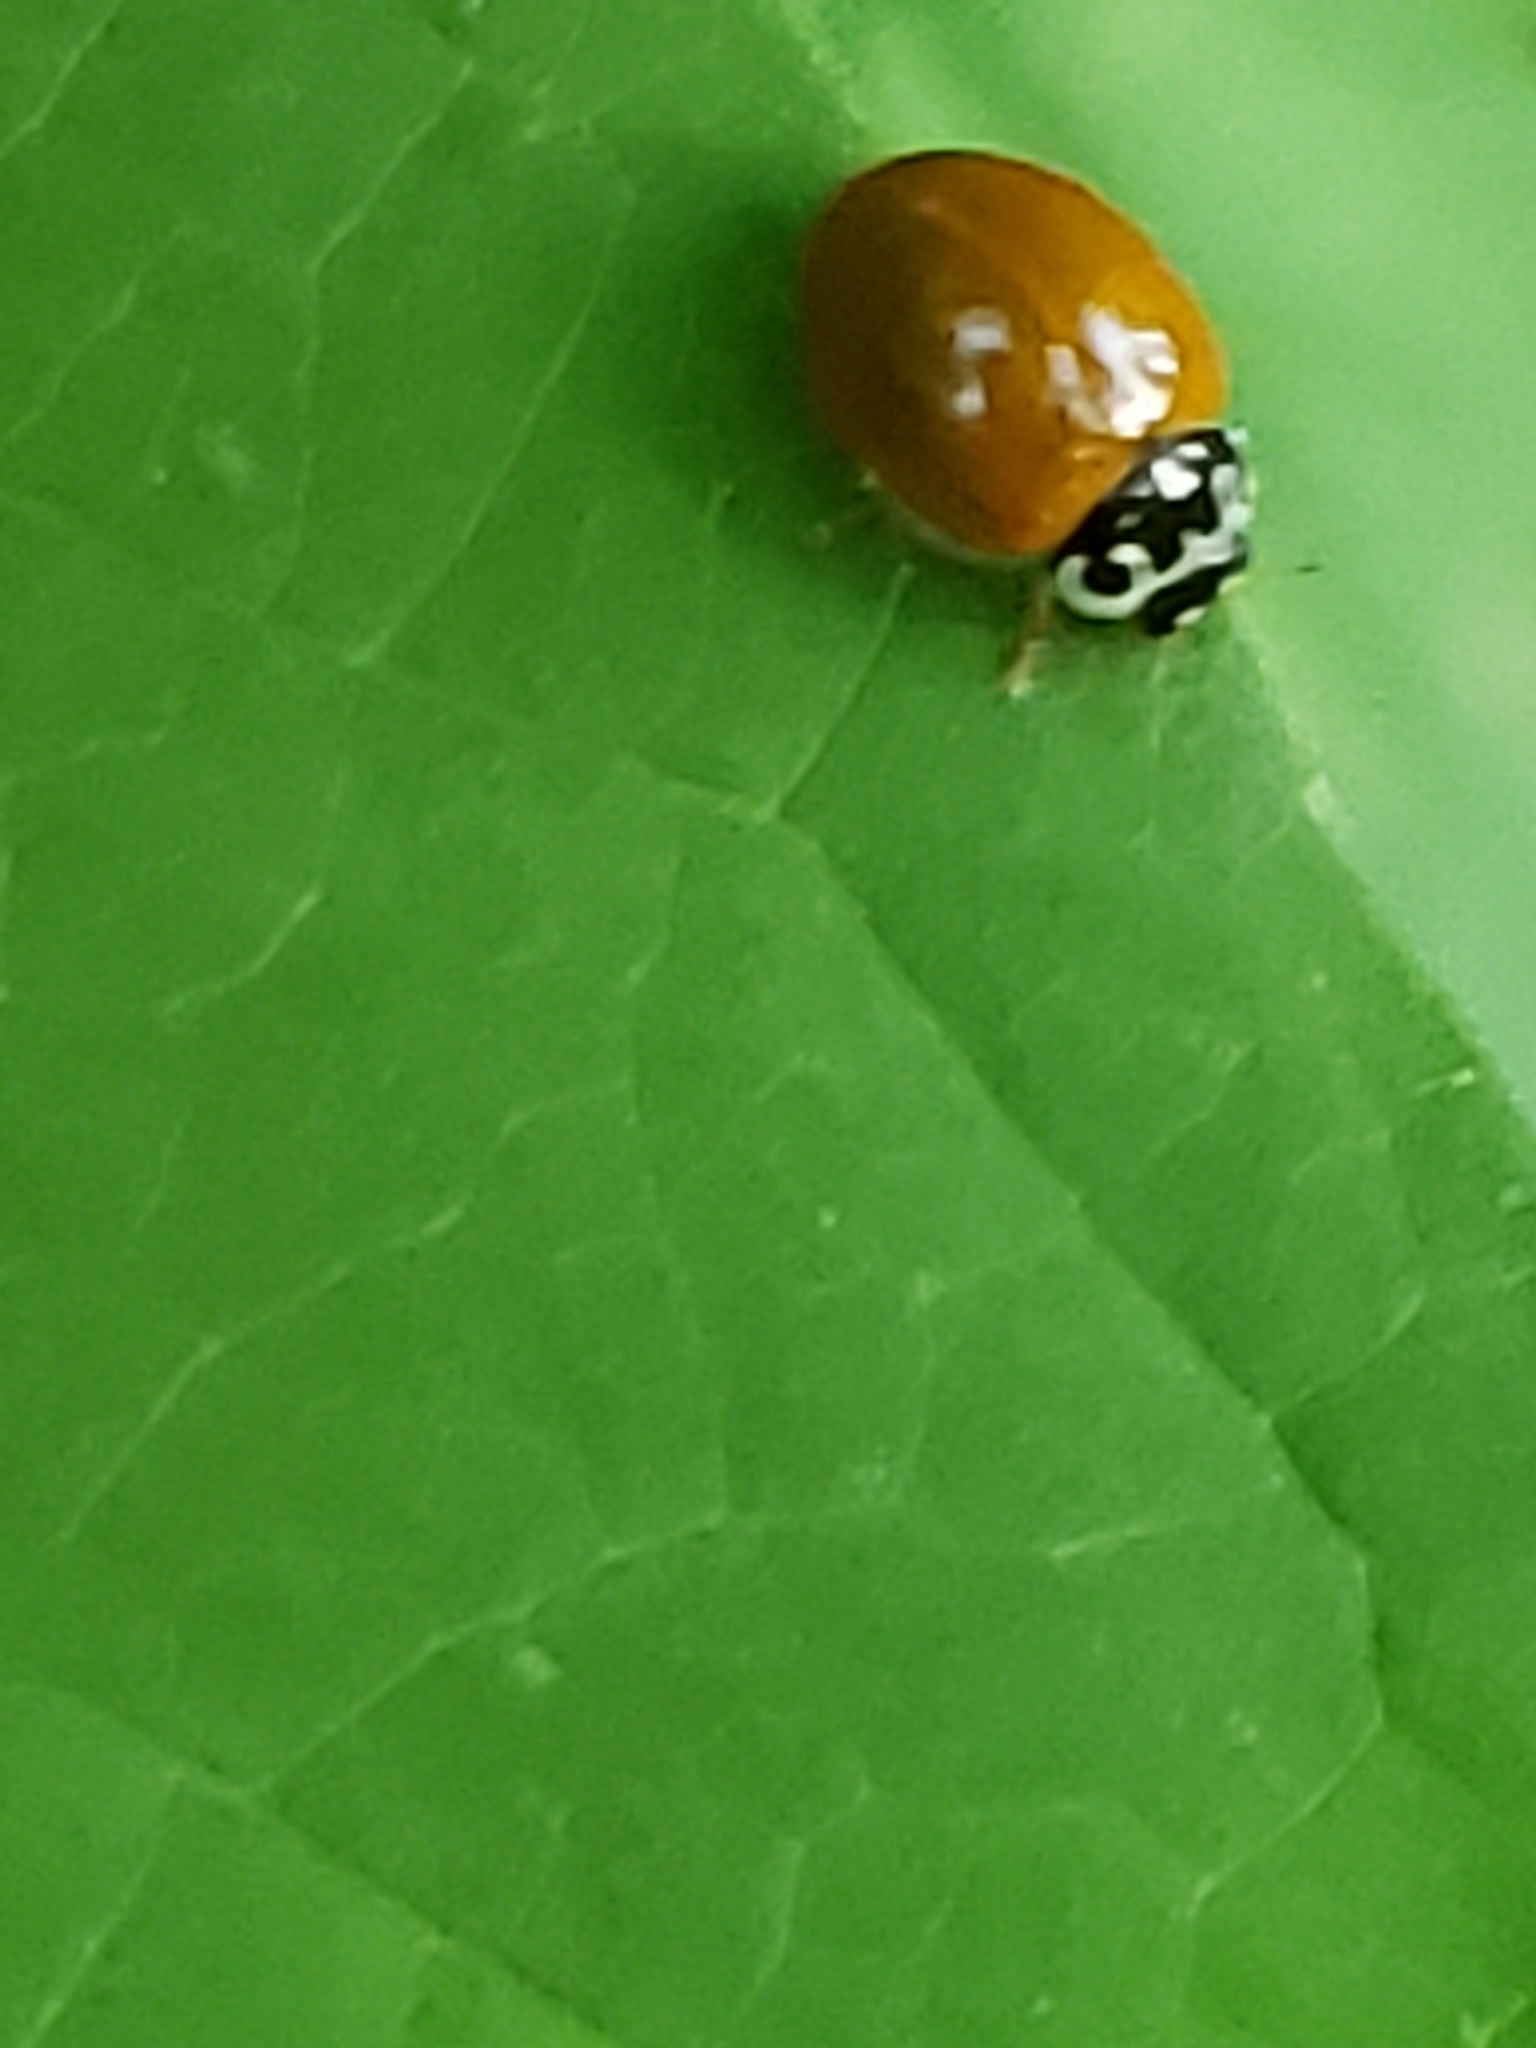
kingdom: Animalia
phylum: Arthropoda
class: Insecta
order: Coleoptera
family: Coccinellidae
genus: Cycloneda
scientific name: Cycloneda munda
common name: Polished lady beetle
